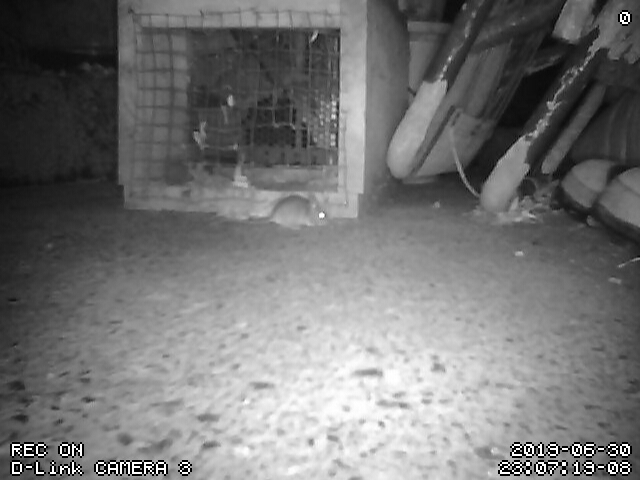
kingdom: Animalia
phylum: Chordata
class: Mammalia
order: Rodentia
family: Muridae
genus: Mus
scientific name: Mus musculus
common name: House mouse
